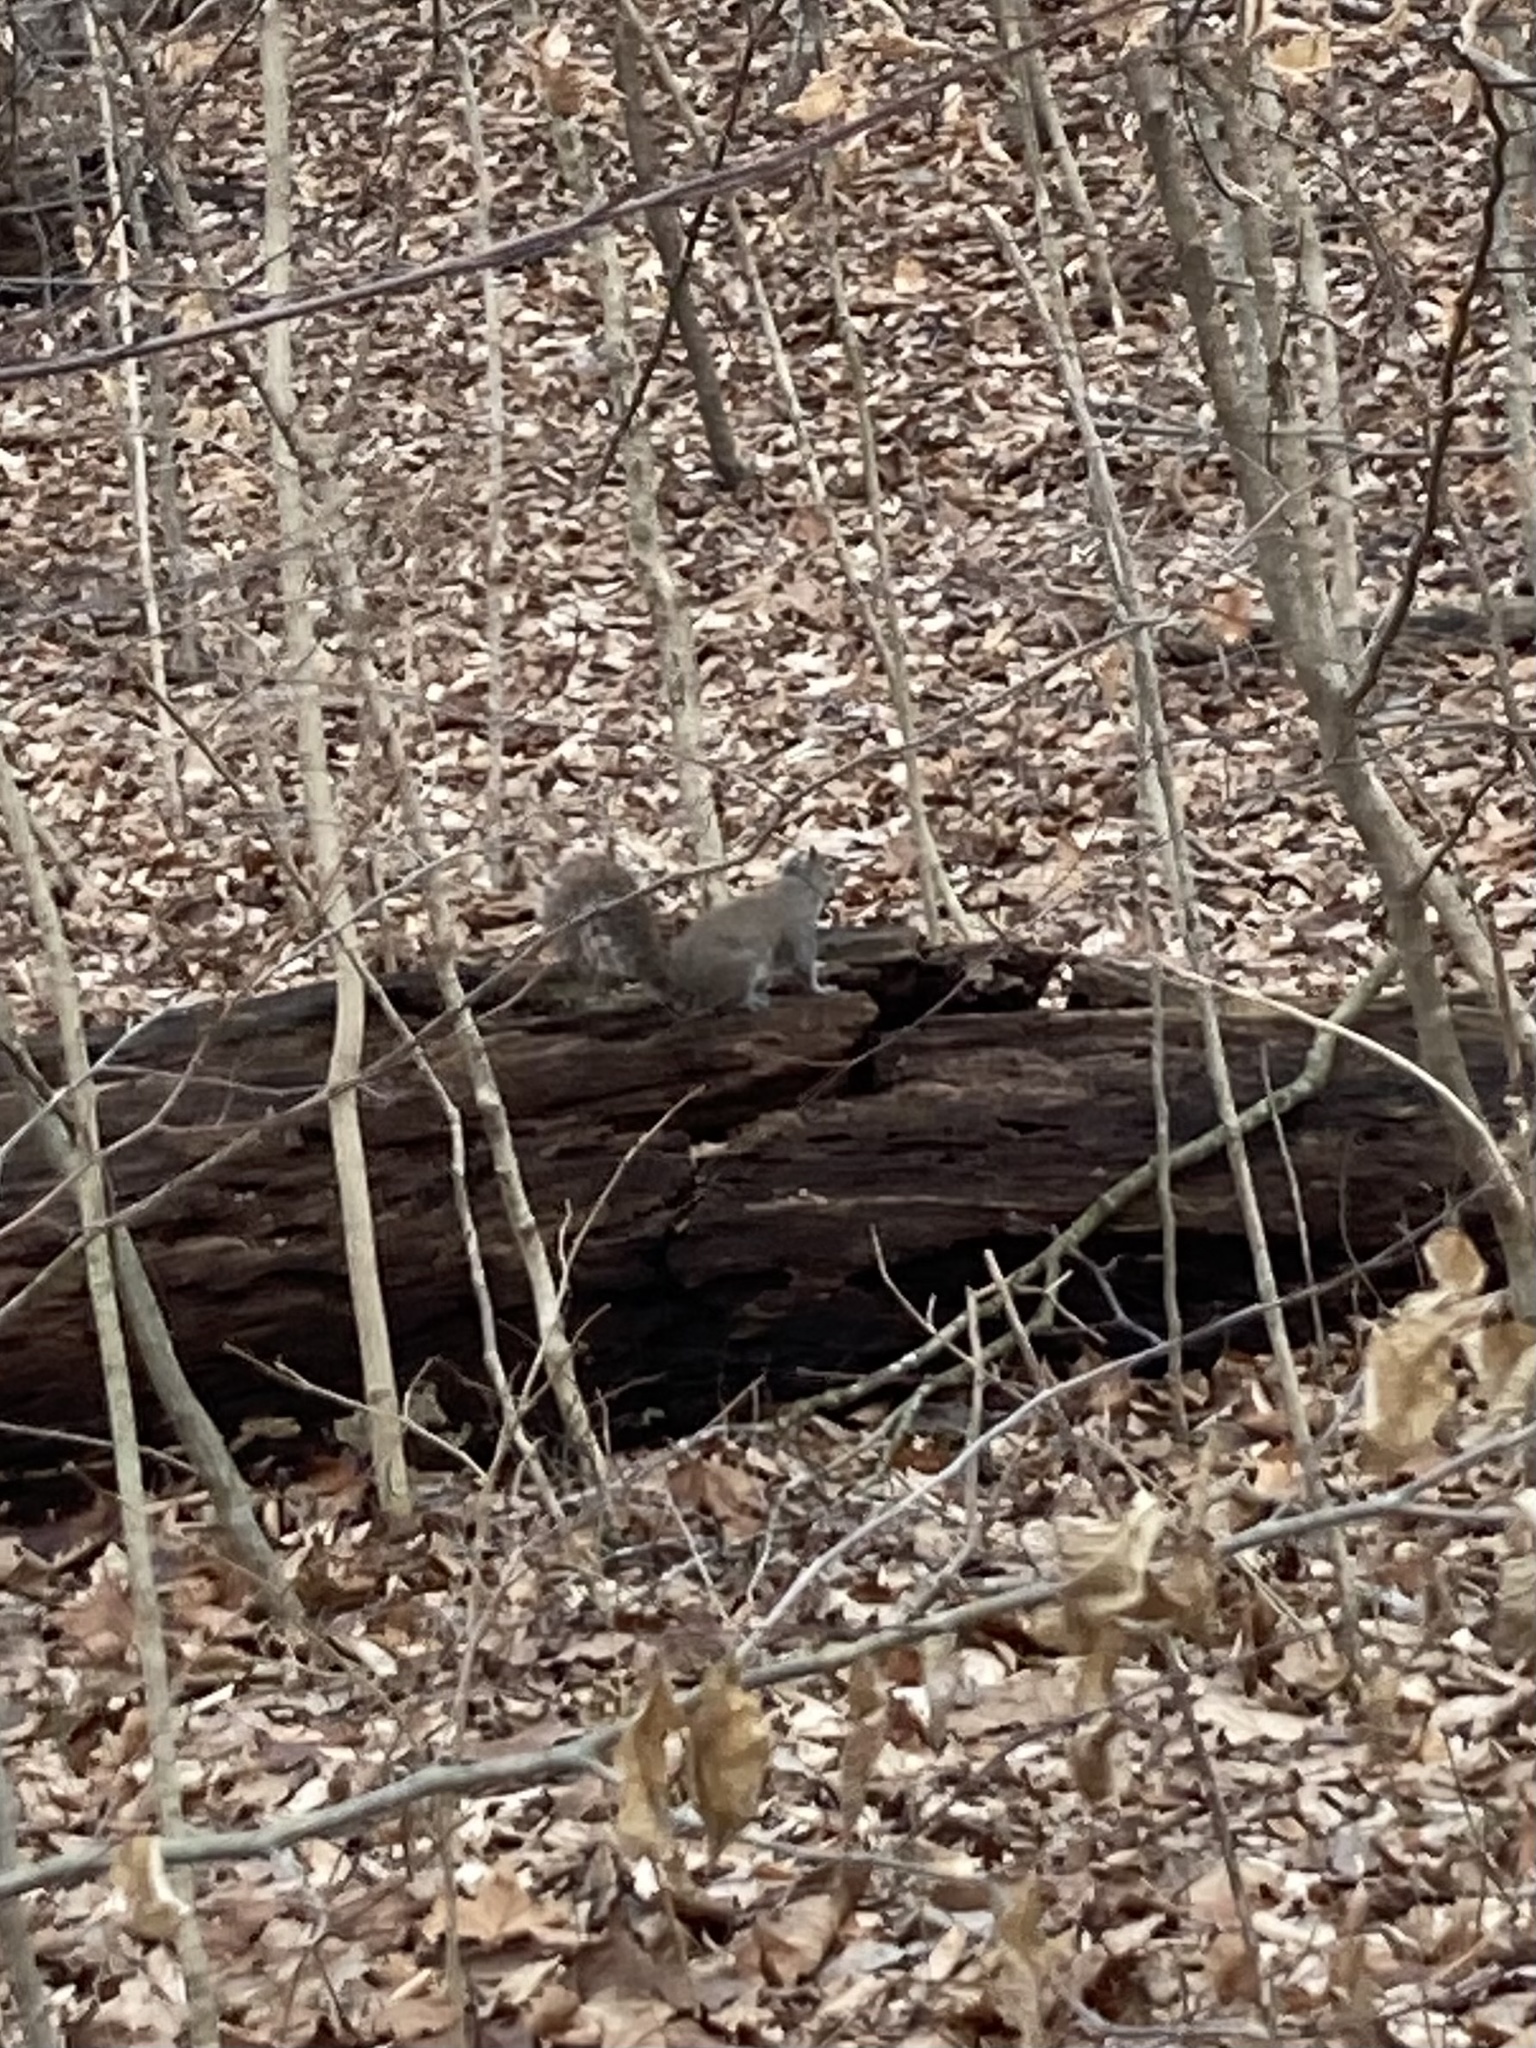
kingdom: Animalia
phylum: Chordata
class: Mammalia
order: Rodentia
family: Sciuridae
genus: Sciurus
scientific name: Sciurus carolinensis
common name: Eastern gray squirrel
